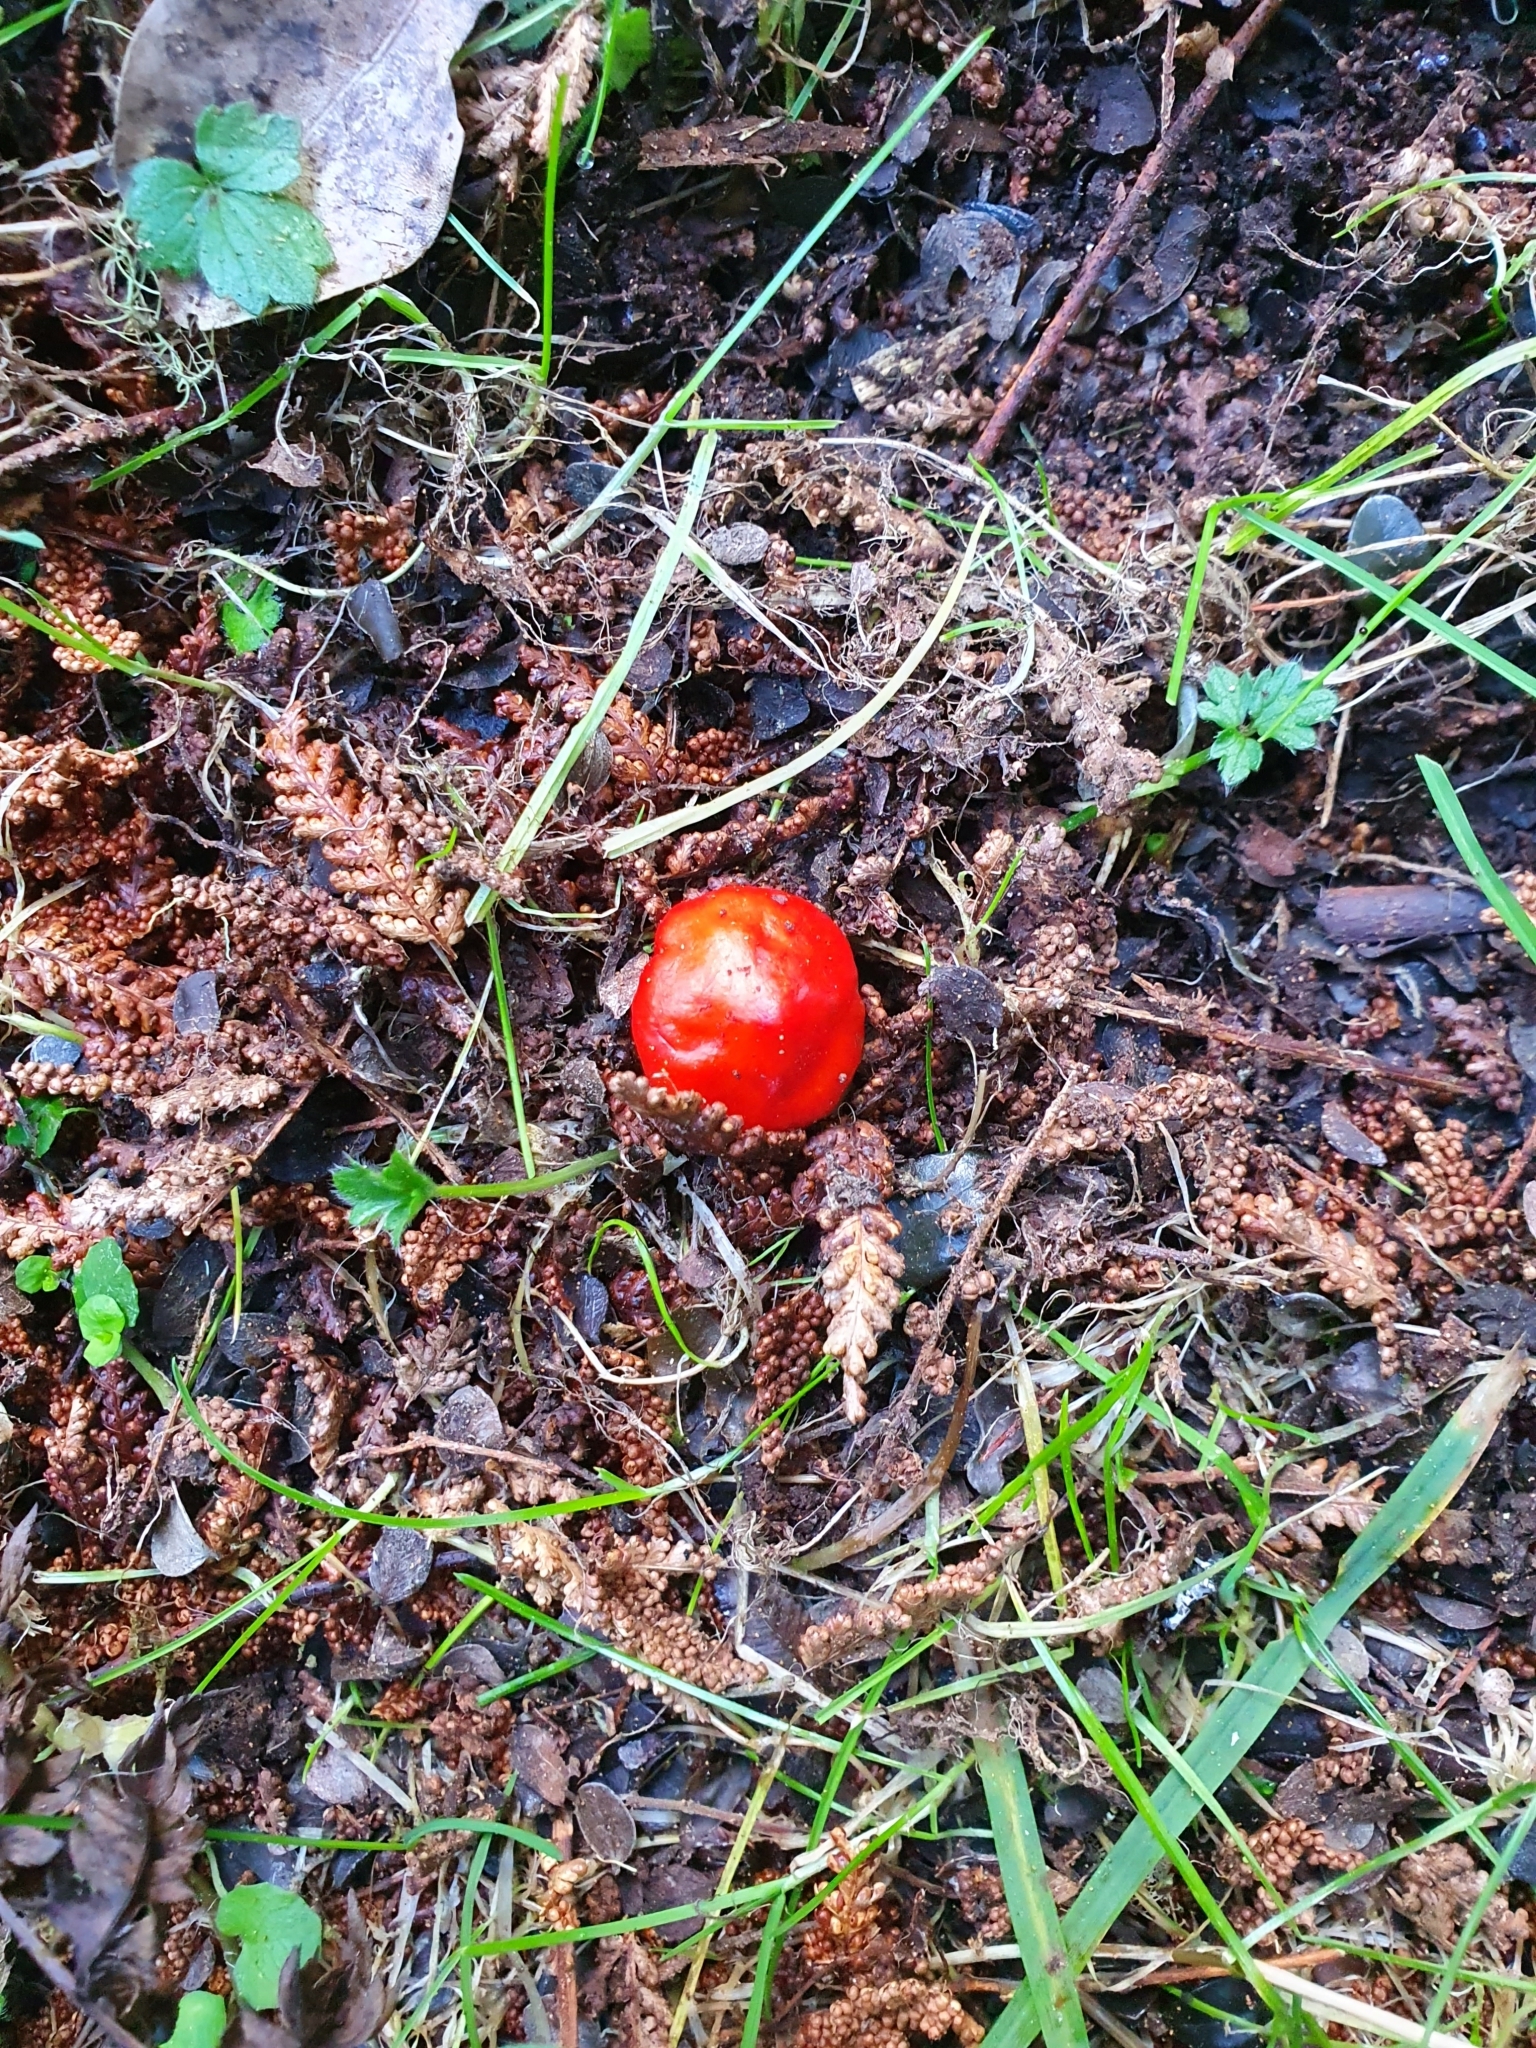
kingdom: Fungi
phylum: Basidiomycota
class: Agaricomycetes
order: Agaricales
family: Strophariaceae
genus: Leratiomyces
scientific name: Leratiomyces erythrocephalus
